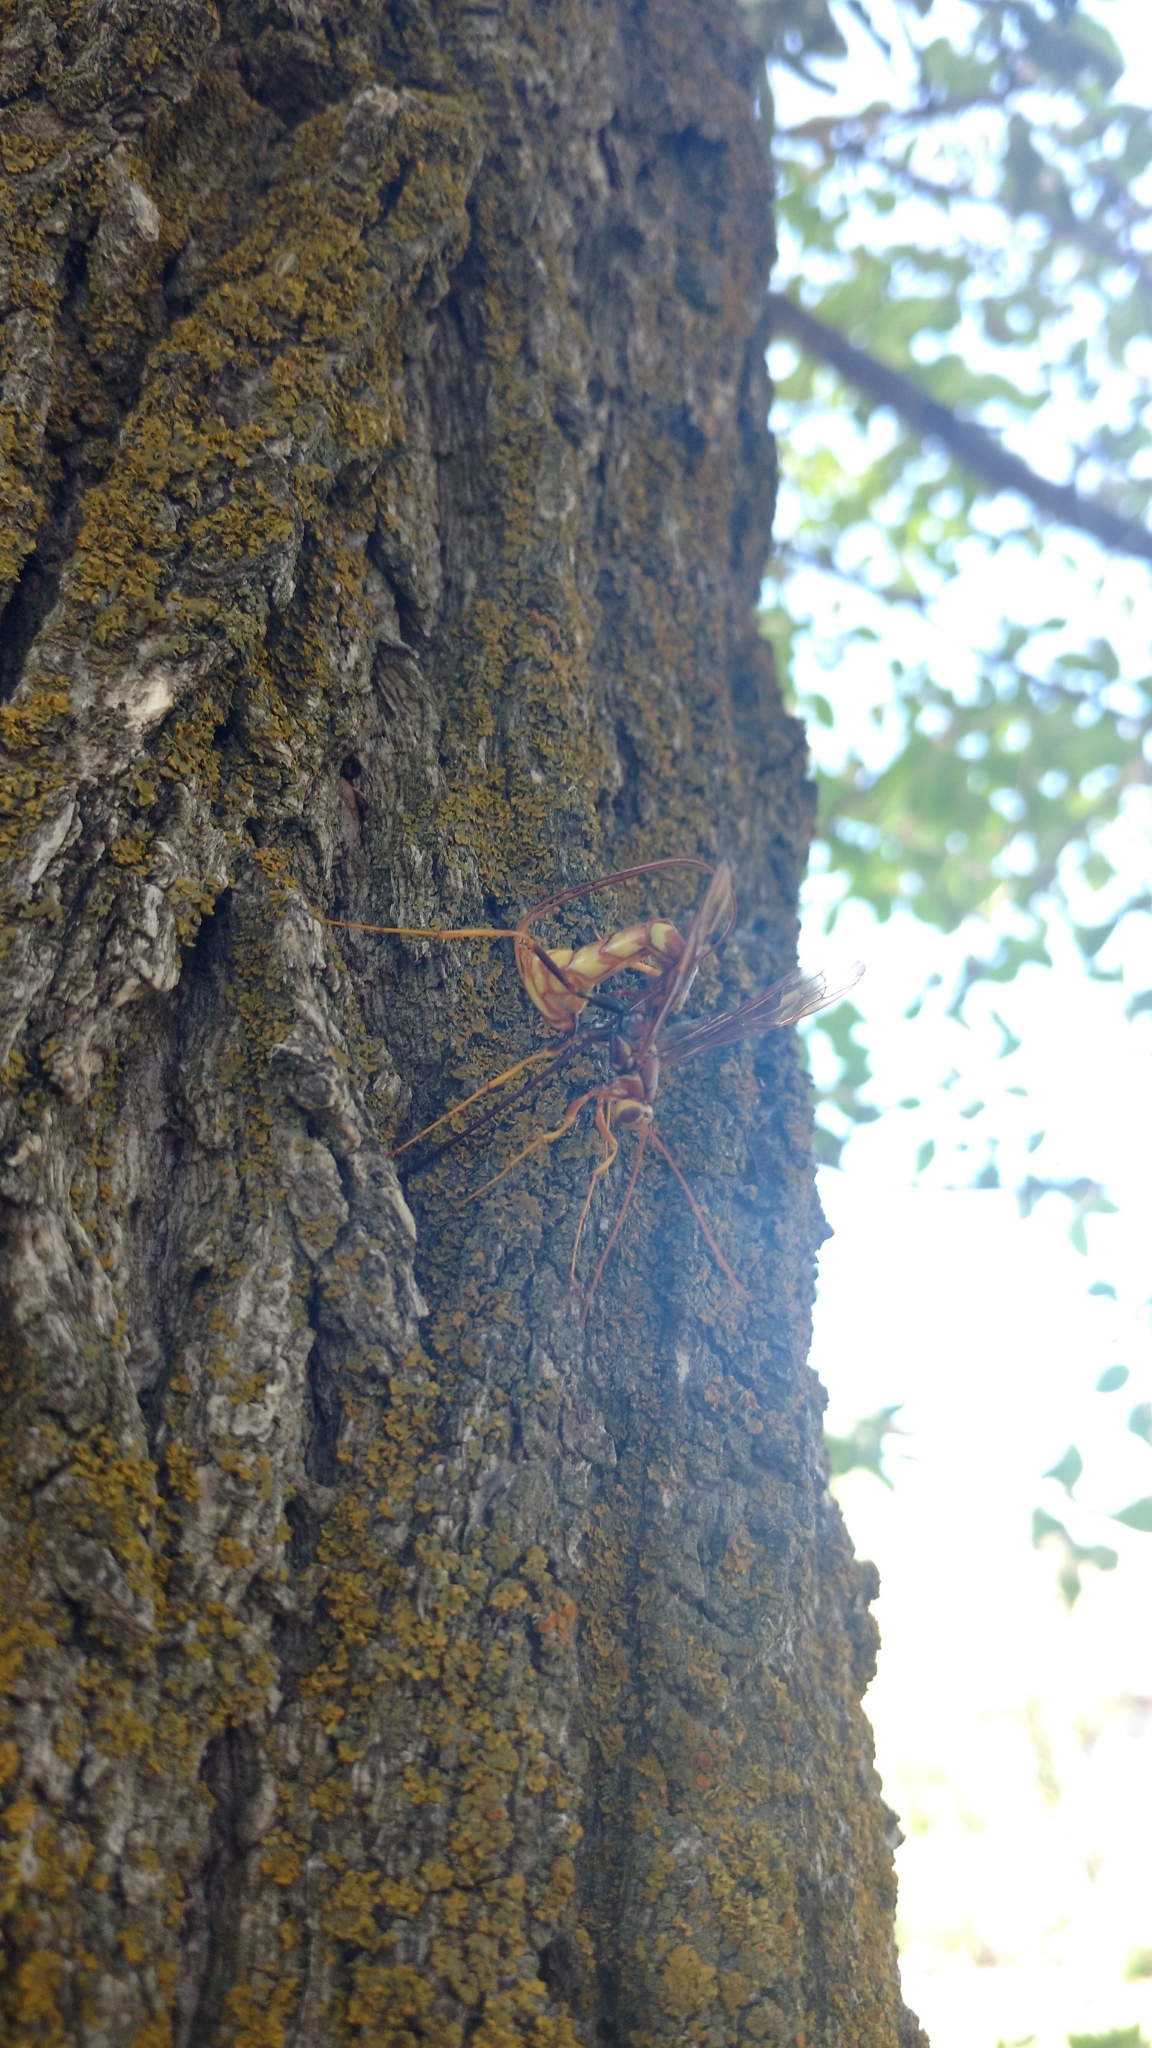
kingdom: Animalia
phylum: Arthropoda
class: Insecta
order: Hymenoptera
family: Ichneumonidae
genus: Megarhyssa
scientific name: Megarhyssa macrura
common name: Long-tailed giant ichneumonid wasp
